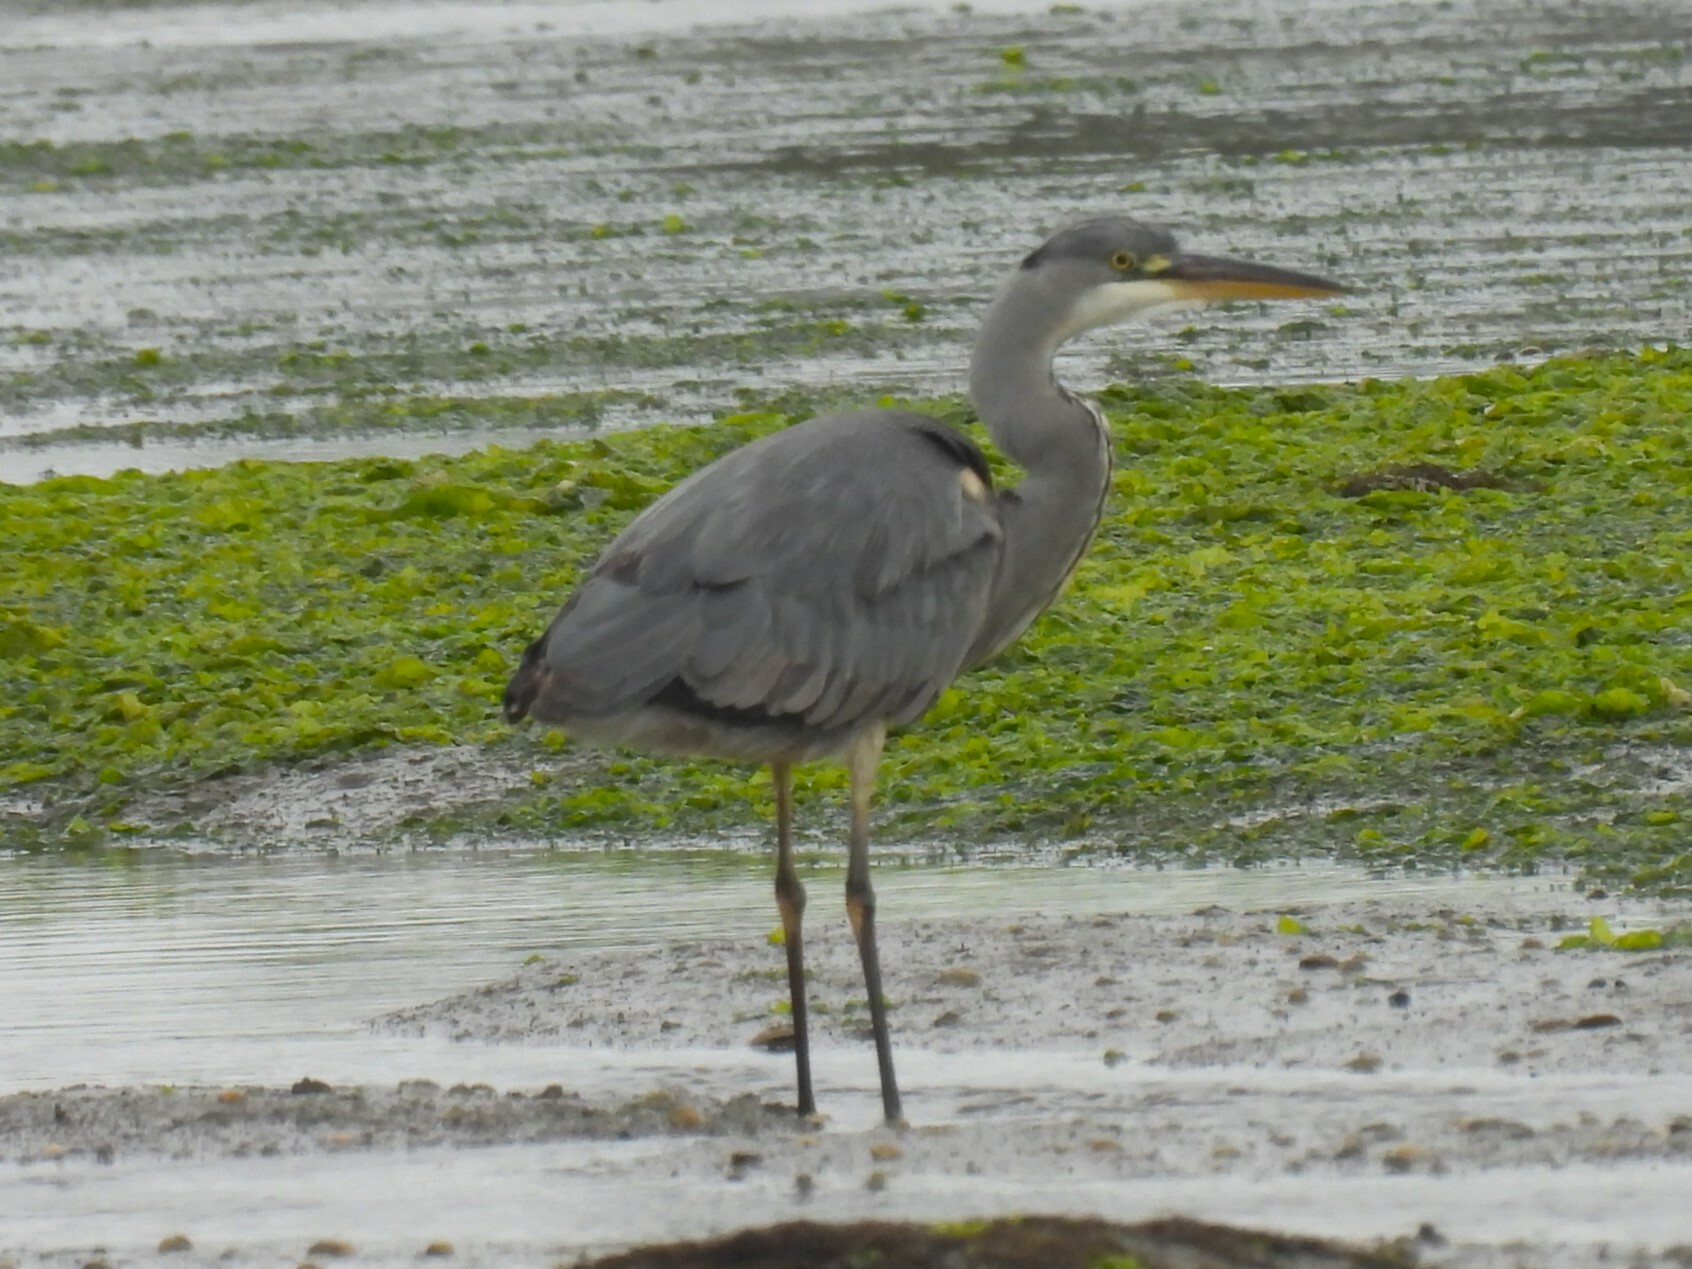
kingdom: Animalia
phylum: Chordata
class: Aves
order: Pelecaniformes
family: Ardeidae
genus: Ardea
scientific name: Ardea cinerea
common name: Grey heron
